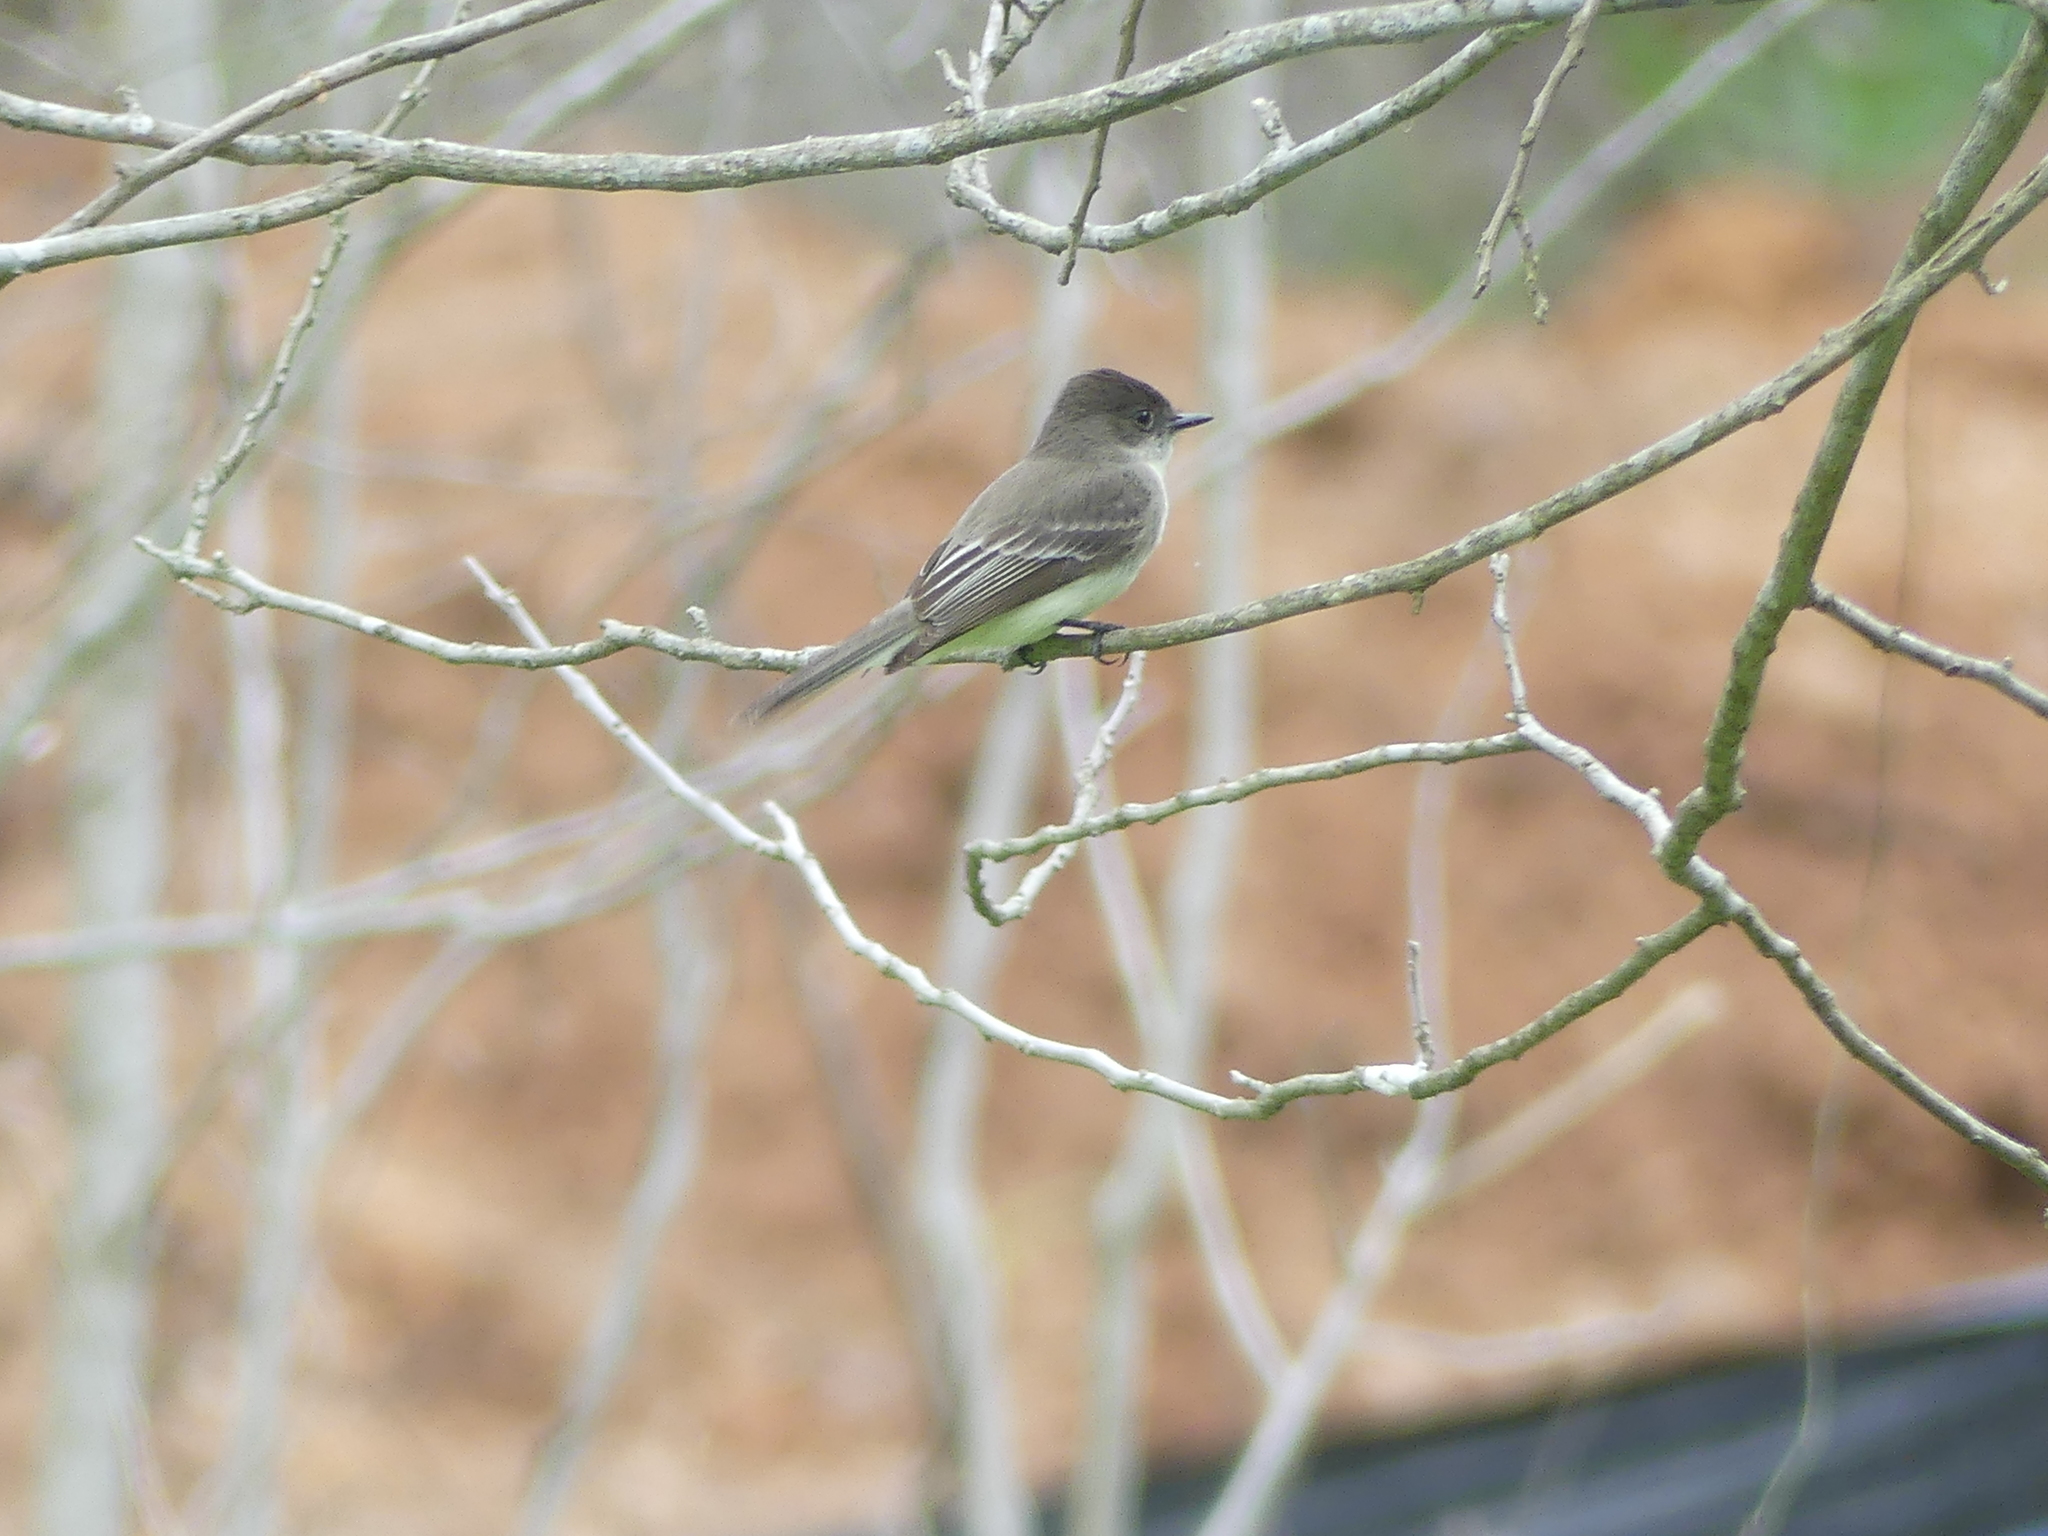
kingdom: Animalia
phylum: Chordata
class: Aves
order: Passeriformes
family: Tyrannidae
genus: Sayornis
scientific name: Sayornis phoebe
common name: Eastern phoebe
